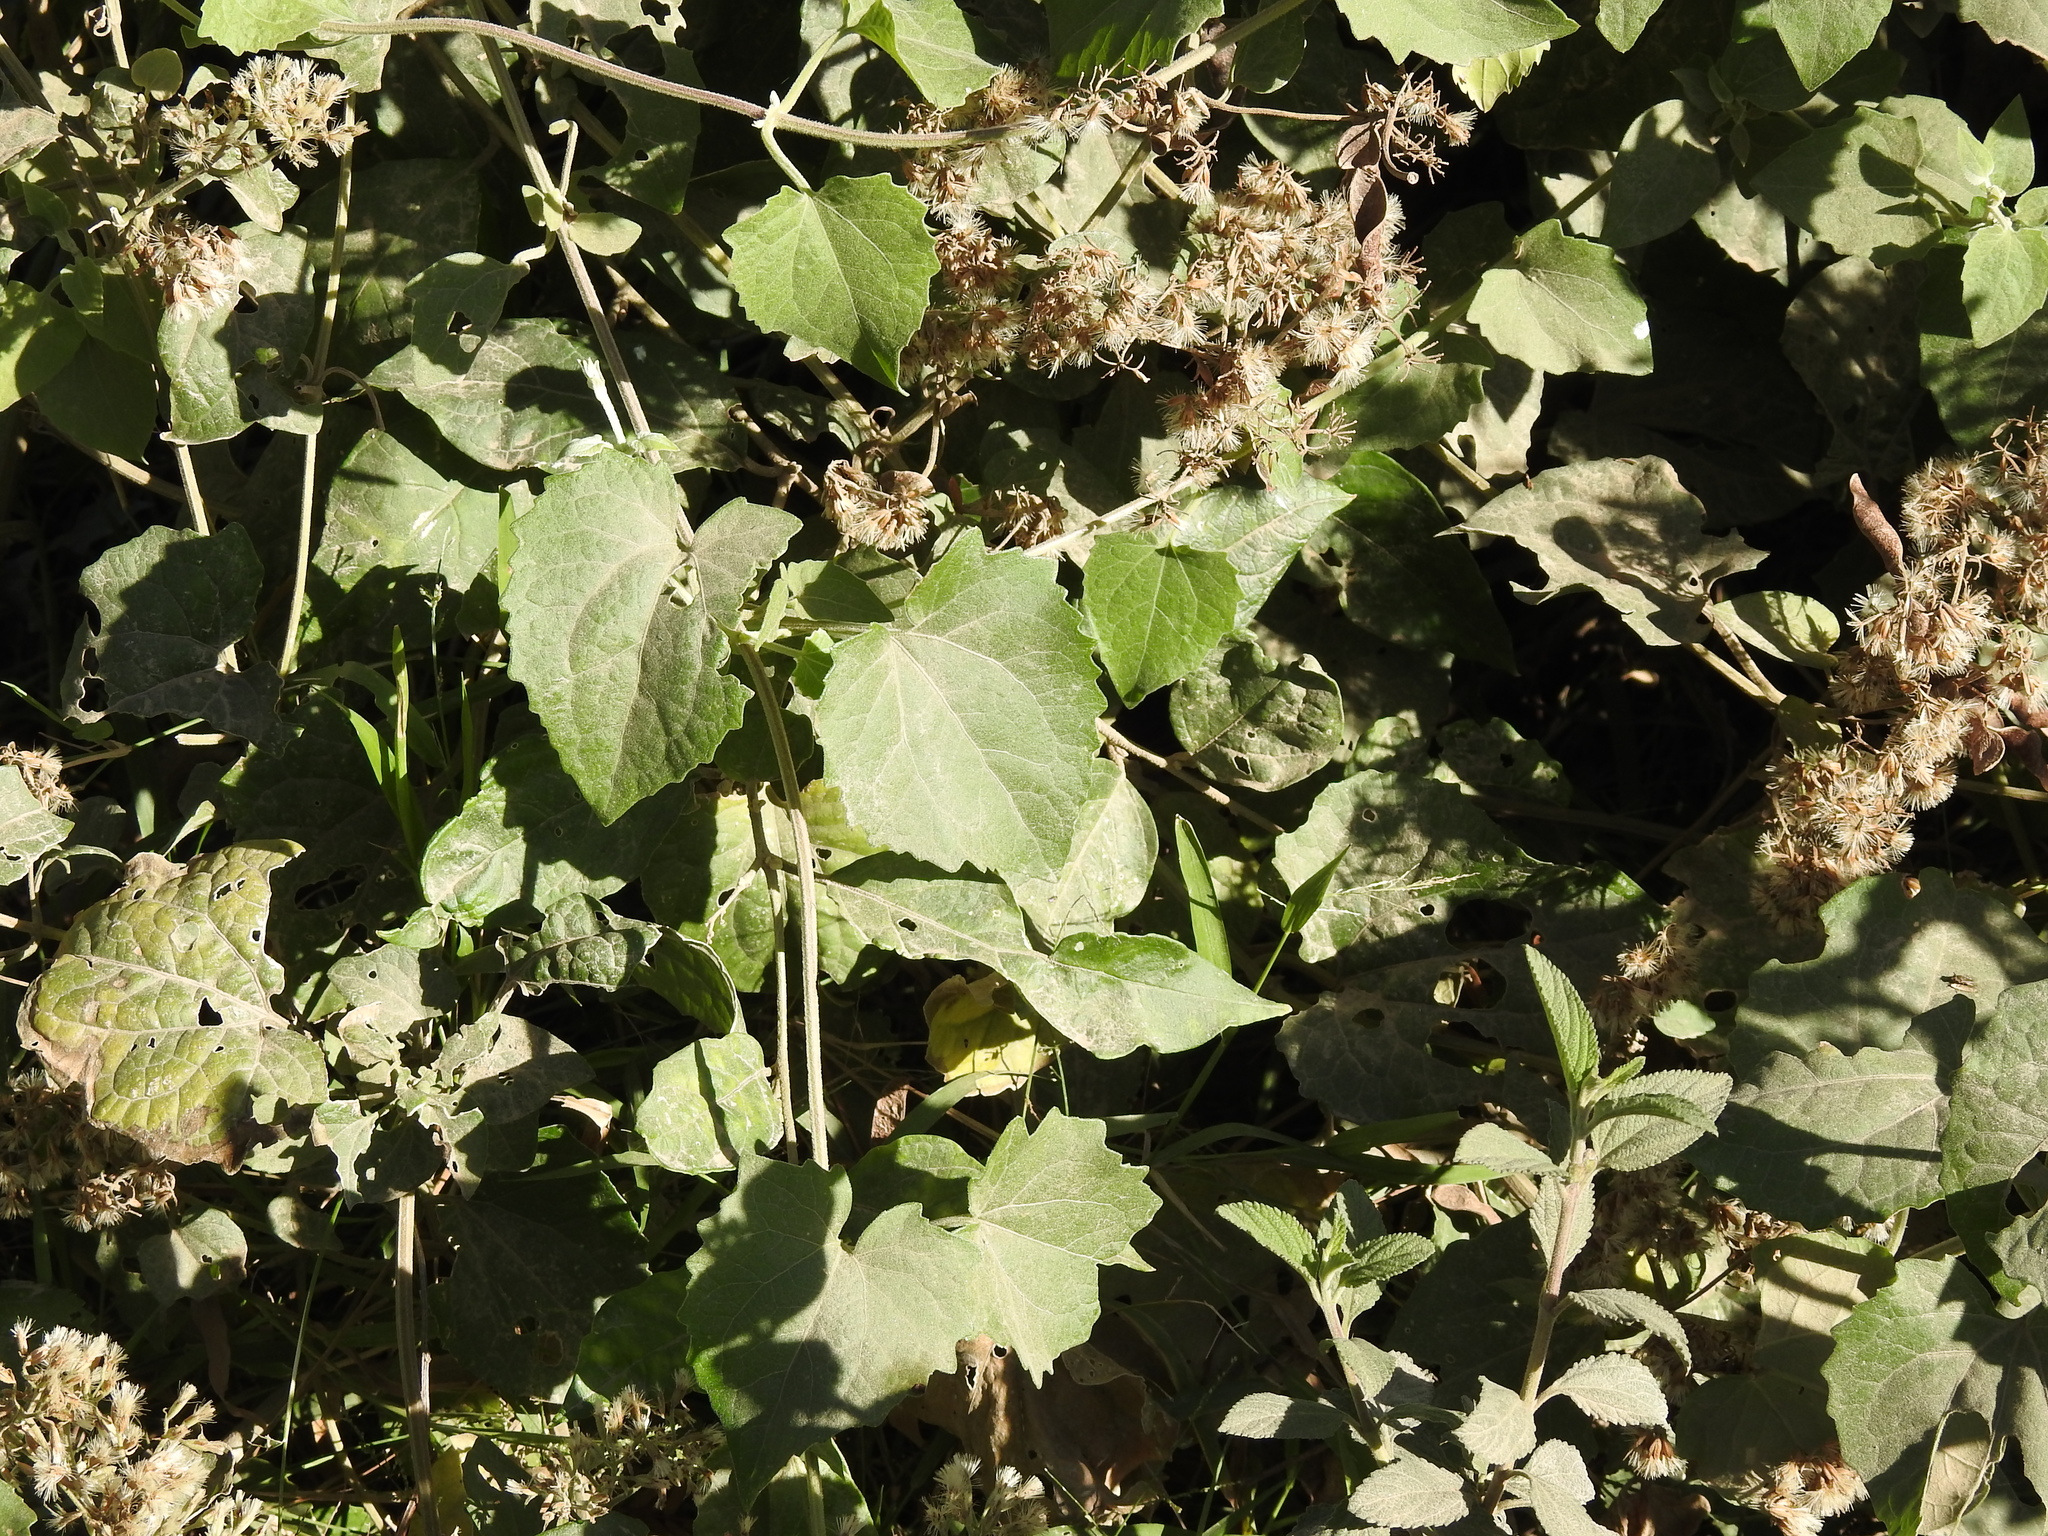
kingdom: Plantae
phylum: Tracheophyta
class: Magnoliopsida
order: Asterales
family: Asteraceae
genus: Mikania
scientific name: Mikania cordifolia
